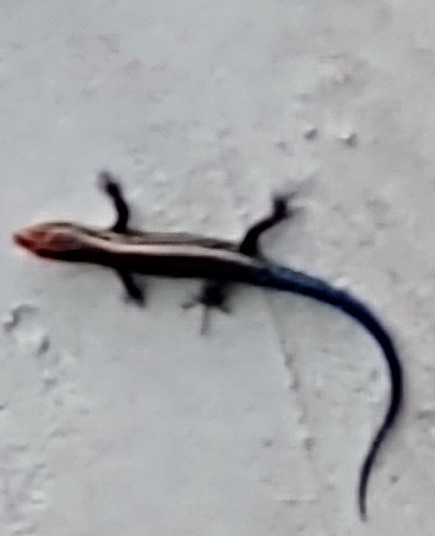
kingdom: Animalia
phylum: Chordata
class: Squamata
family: Scincidae
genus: Plestiodon
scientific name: Plestiodon
